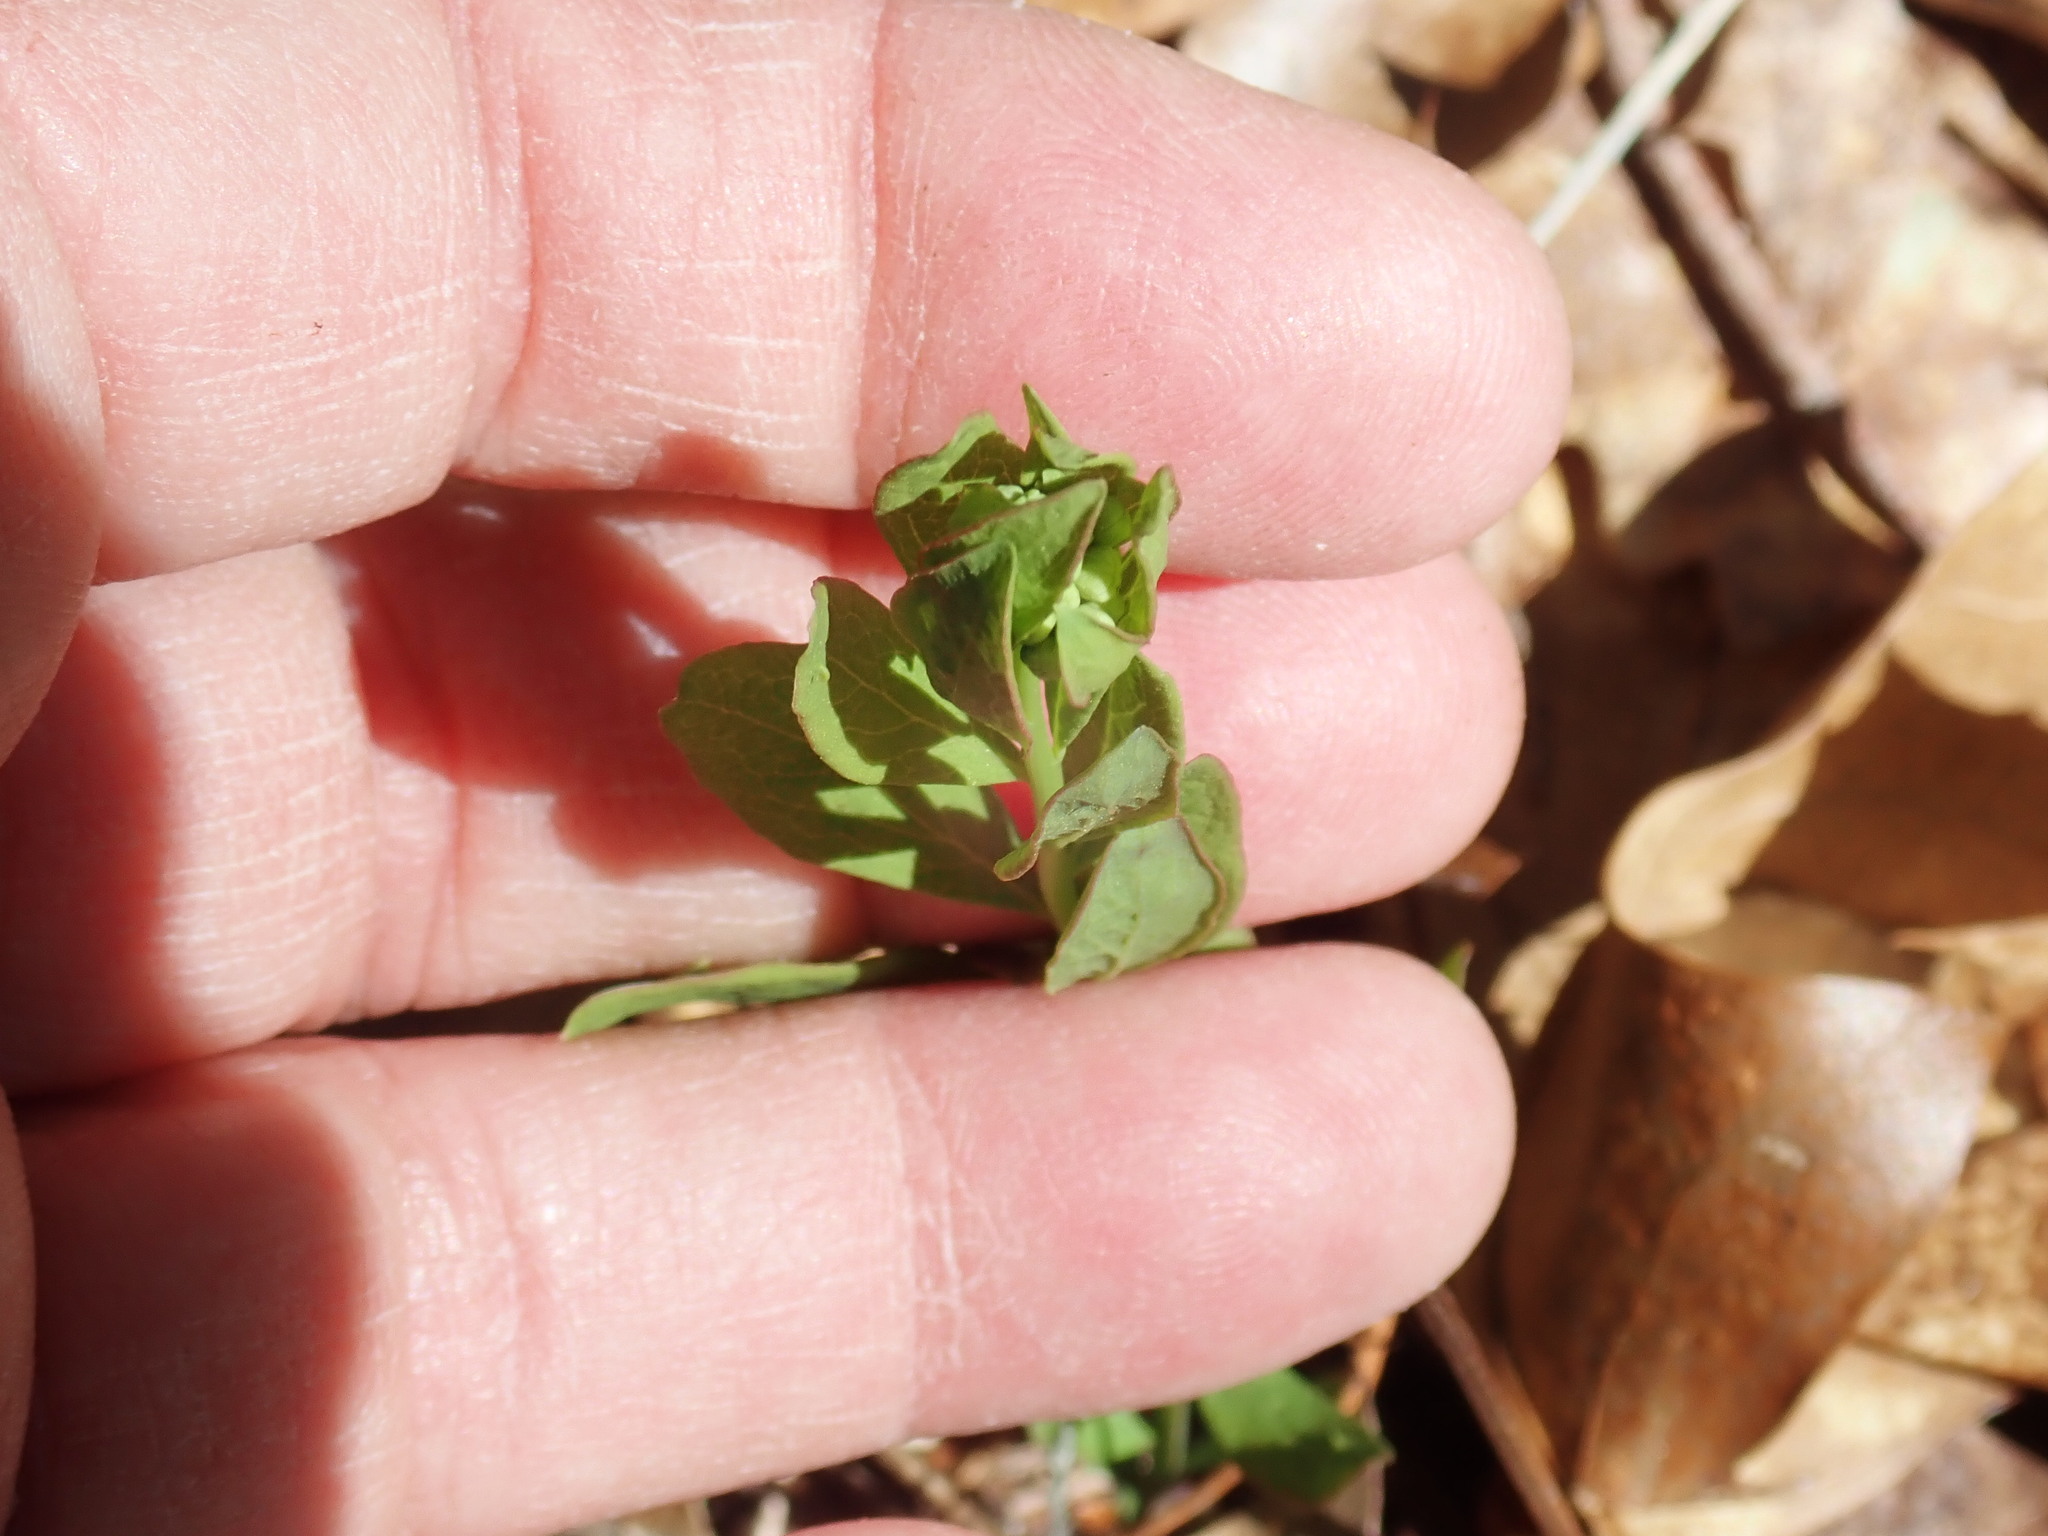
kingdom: Plantae
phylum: Tracheophyta
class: Magnoliopsida
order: Santalales
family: Comandraceae
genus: Comandra
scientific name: Comandra umbellata
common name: Bastard toadflax
